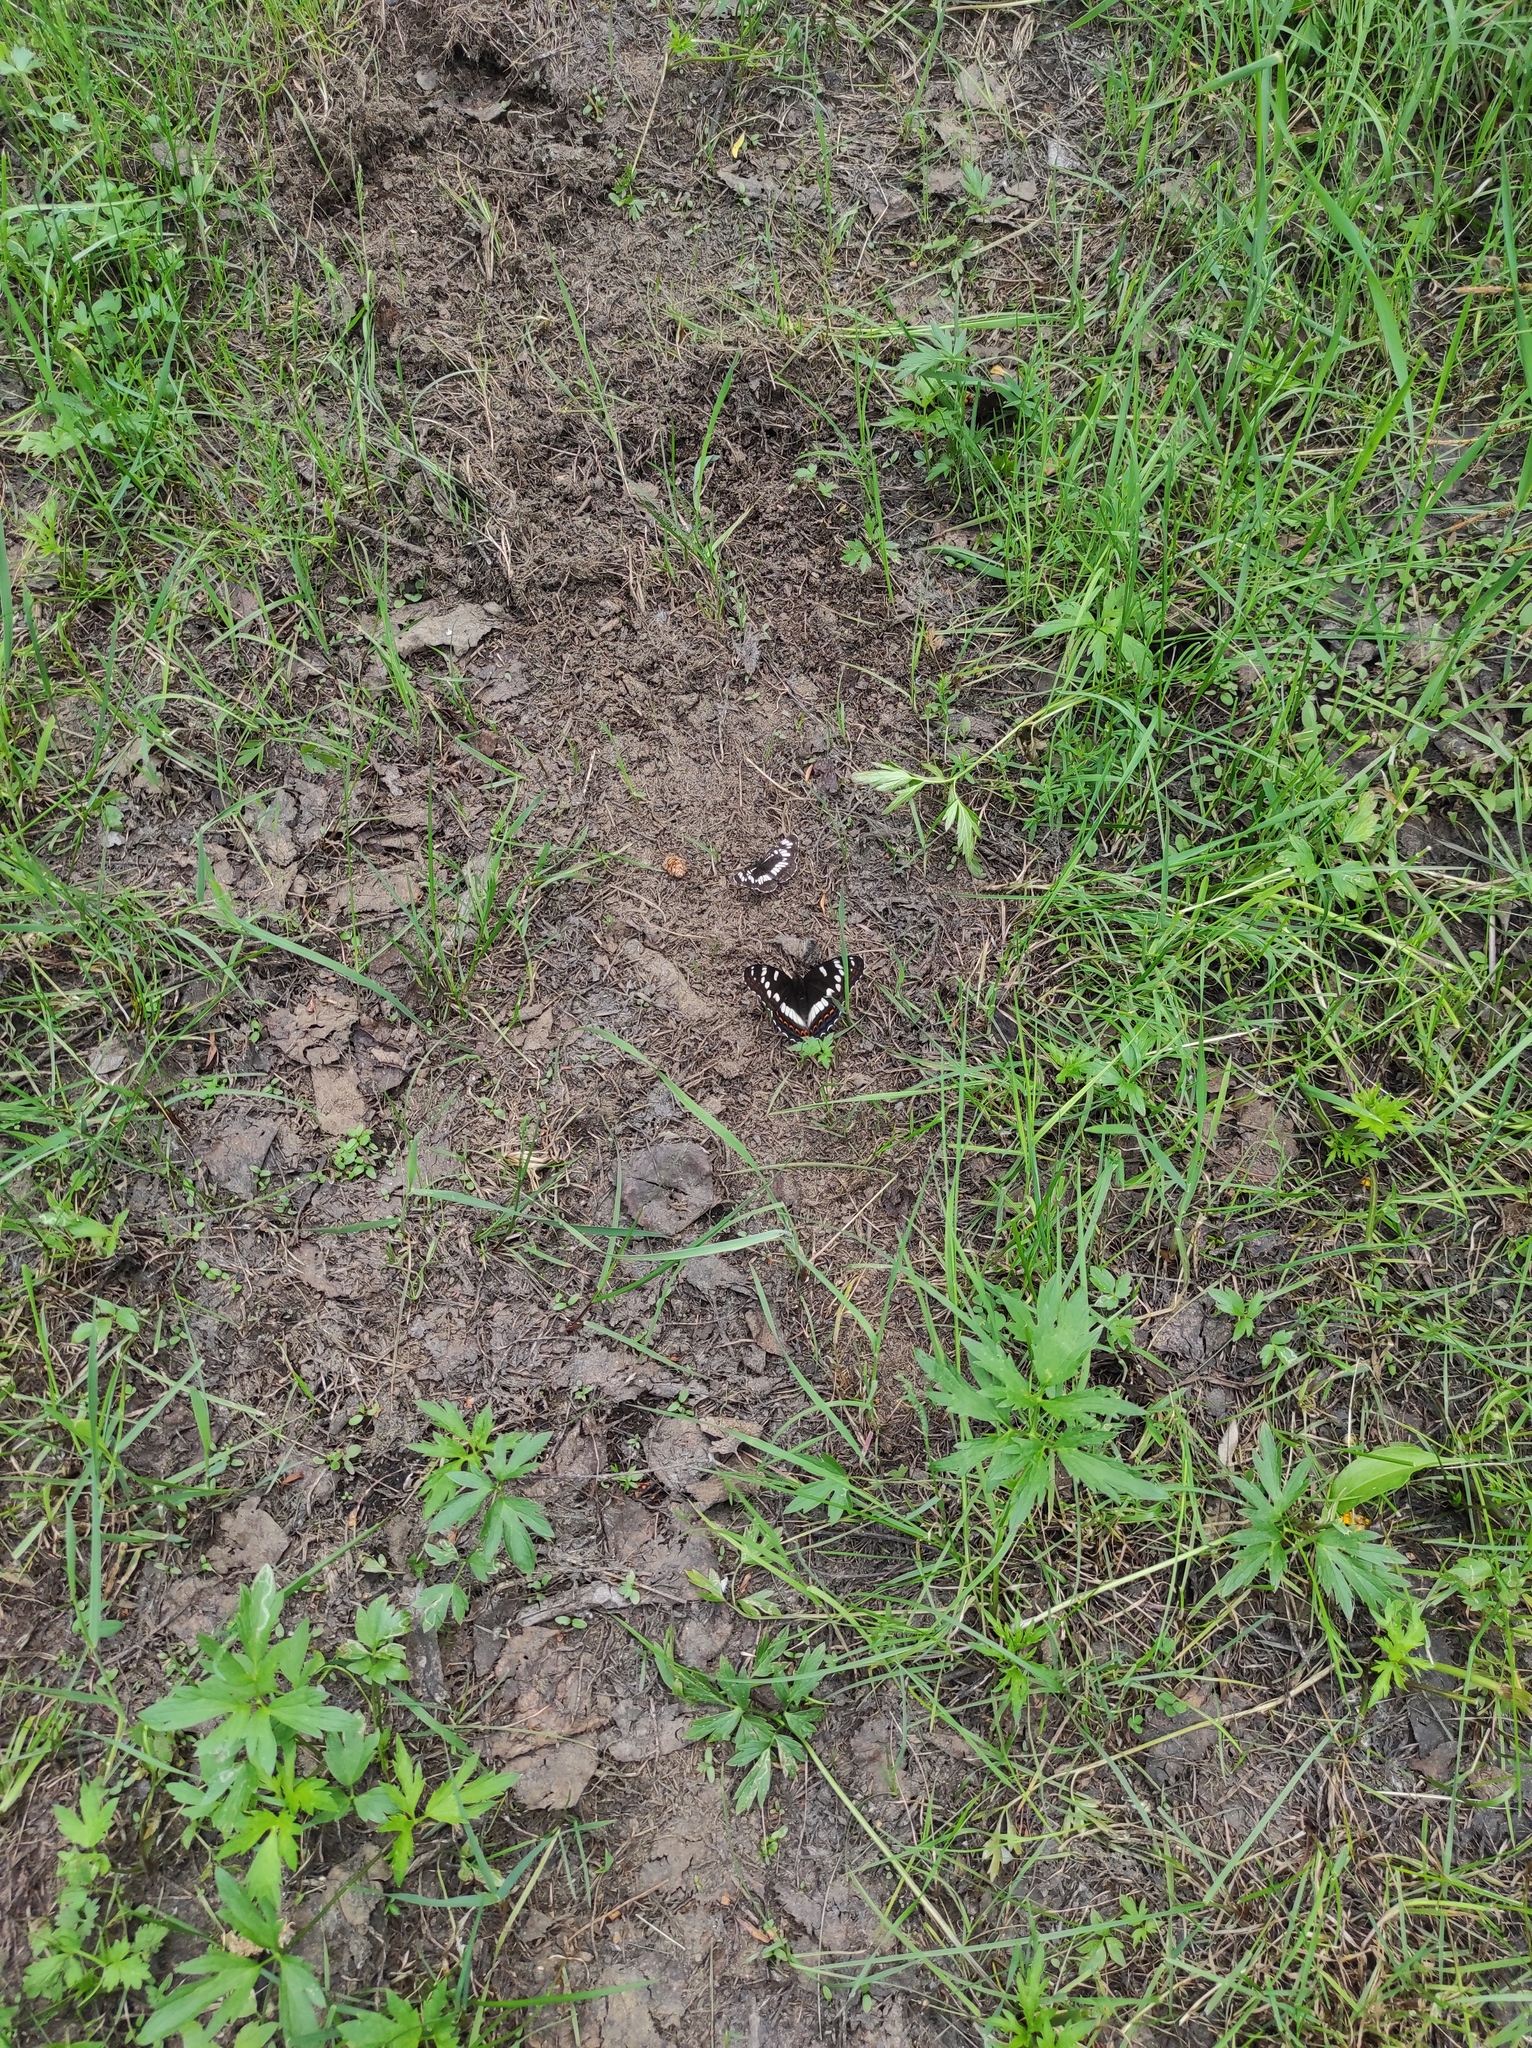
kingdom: Animalia
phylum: Arthropoda
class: Insecta
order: Lepidoptera
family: Nymphalidae
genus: Limenitis
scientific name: Limenitis populi
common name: Poplar admiral
